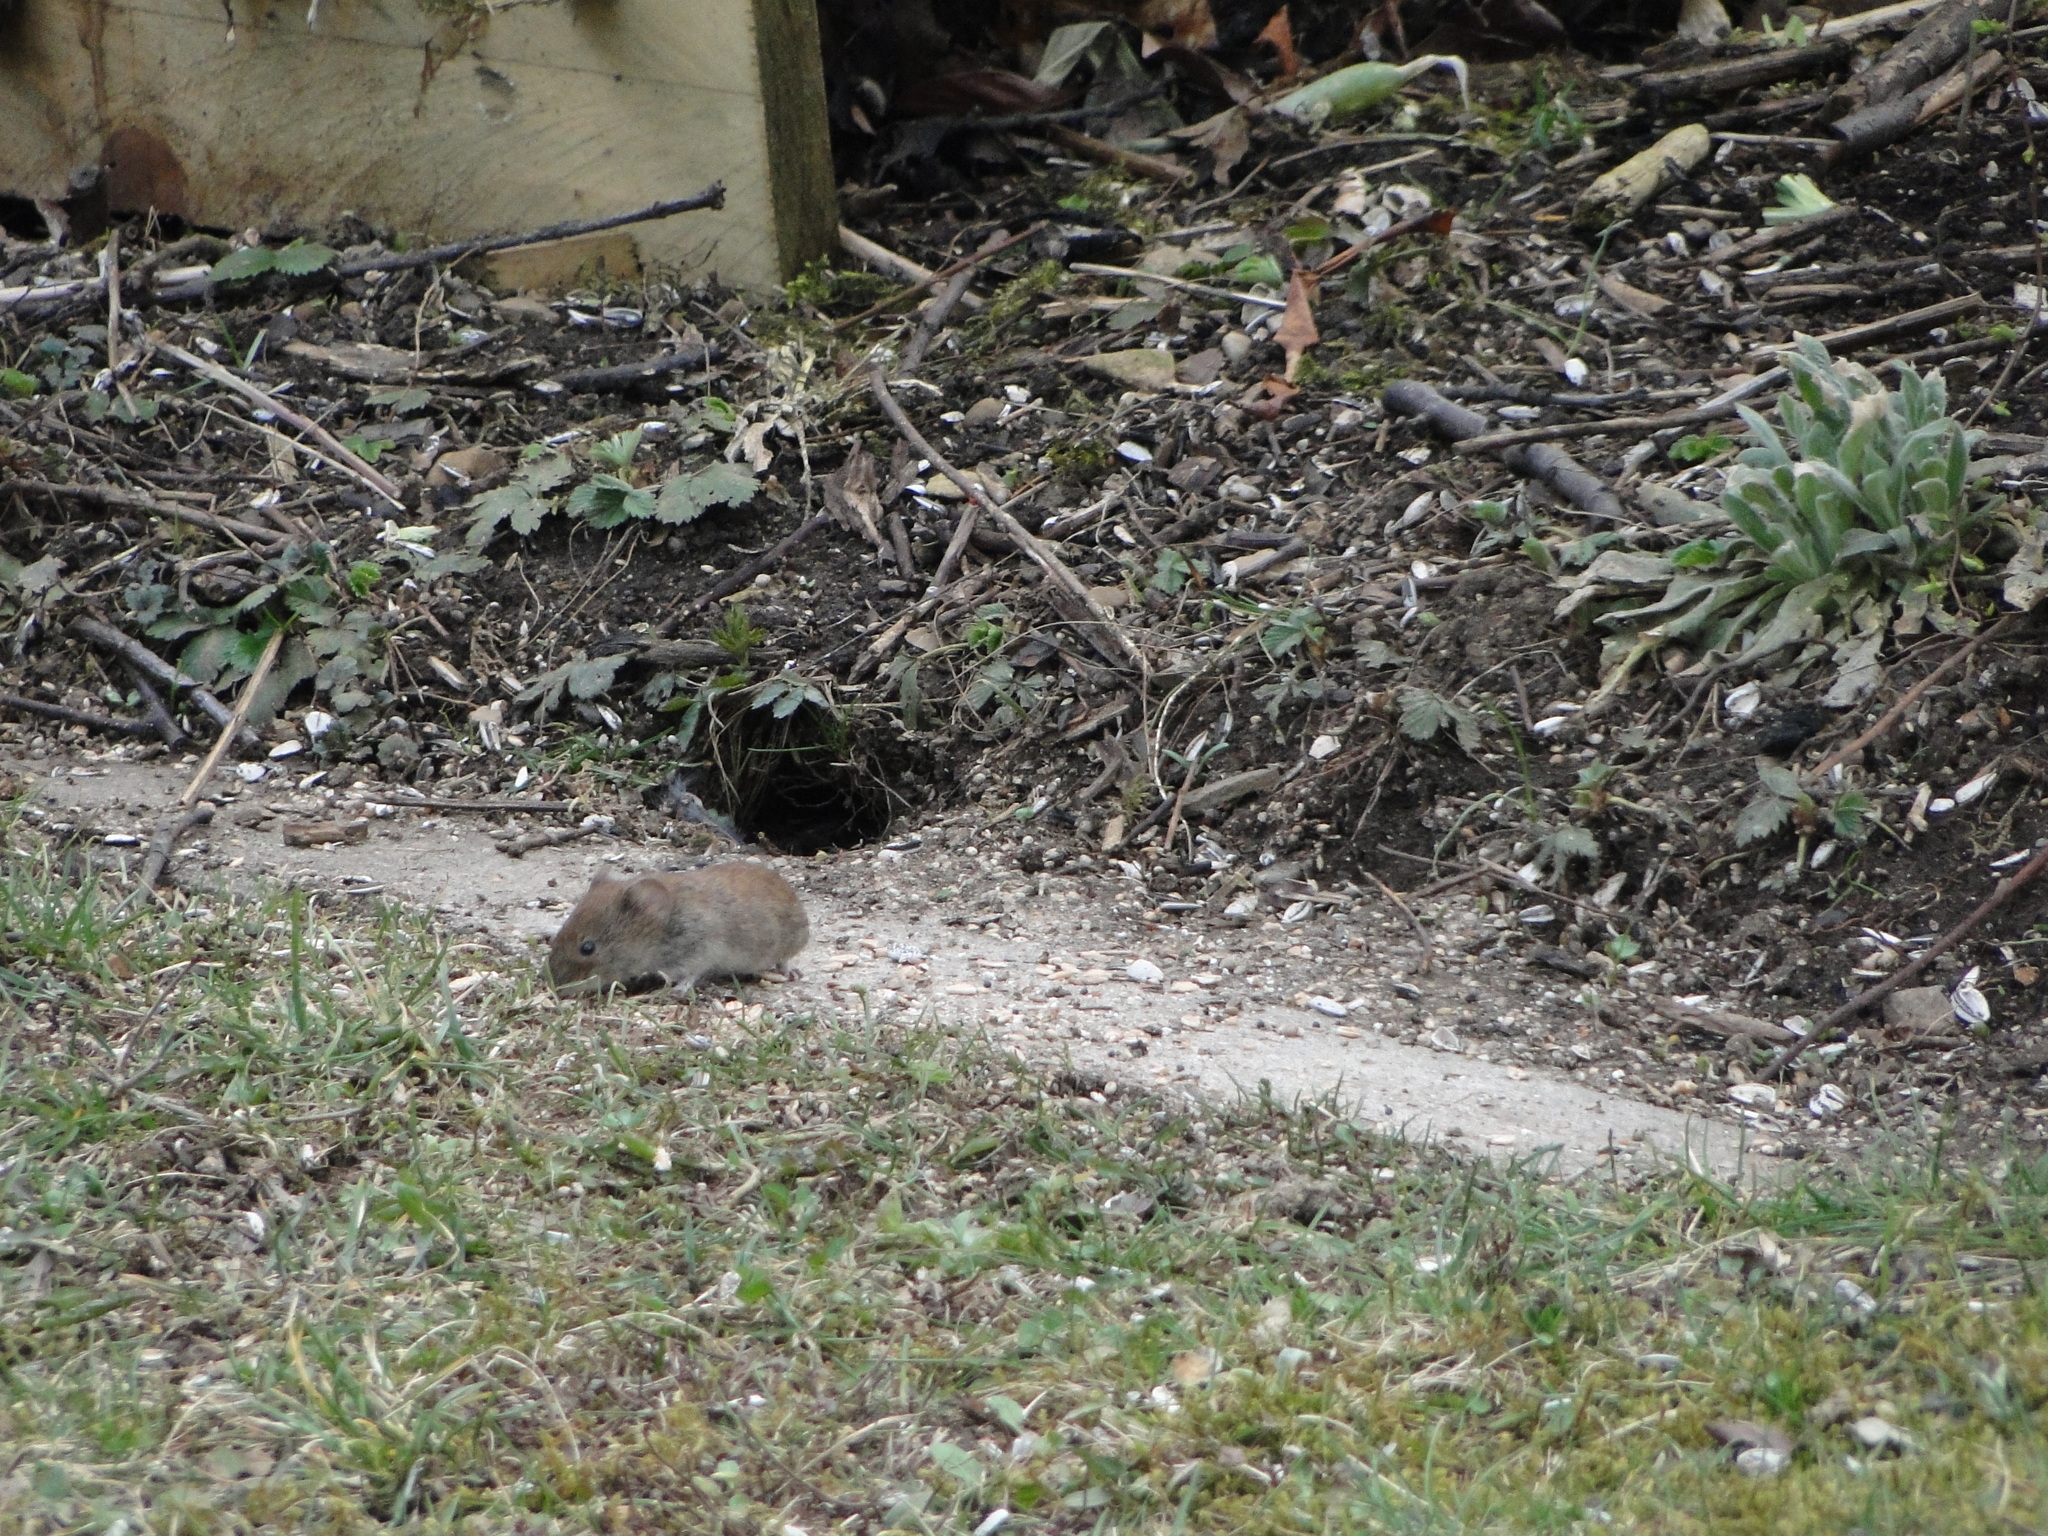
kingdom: Animalia
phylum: Chordata
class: Mammalia
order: Rodentia
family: Cricetidae
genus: Myodes
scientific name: Myodes glareolus
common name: Bank vole
